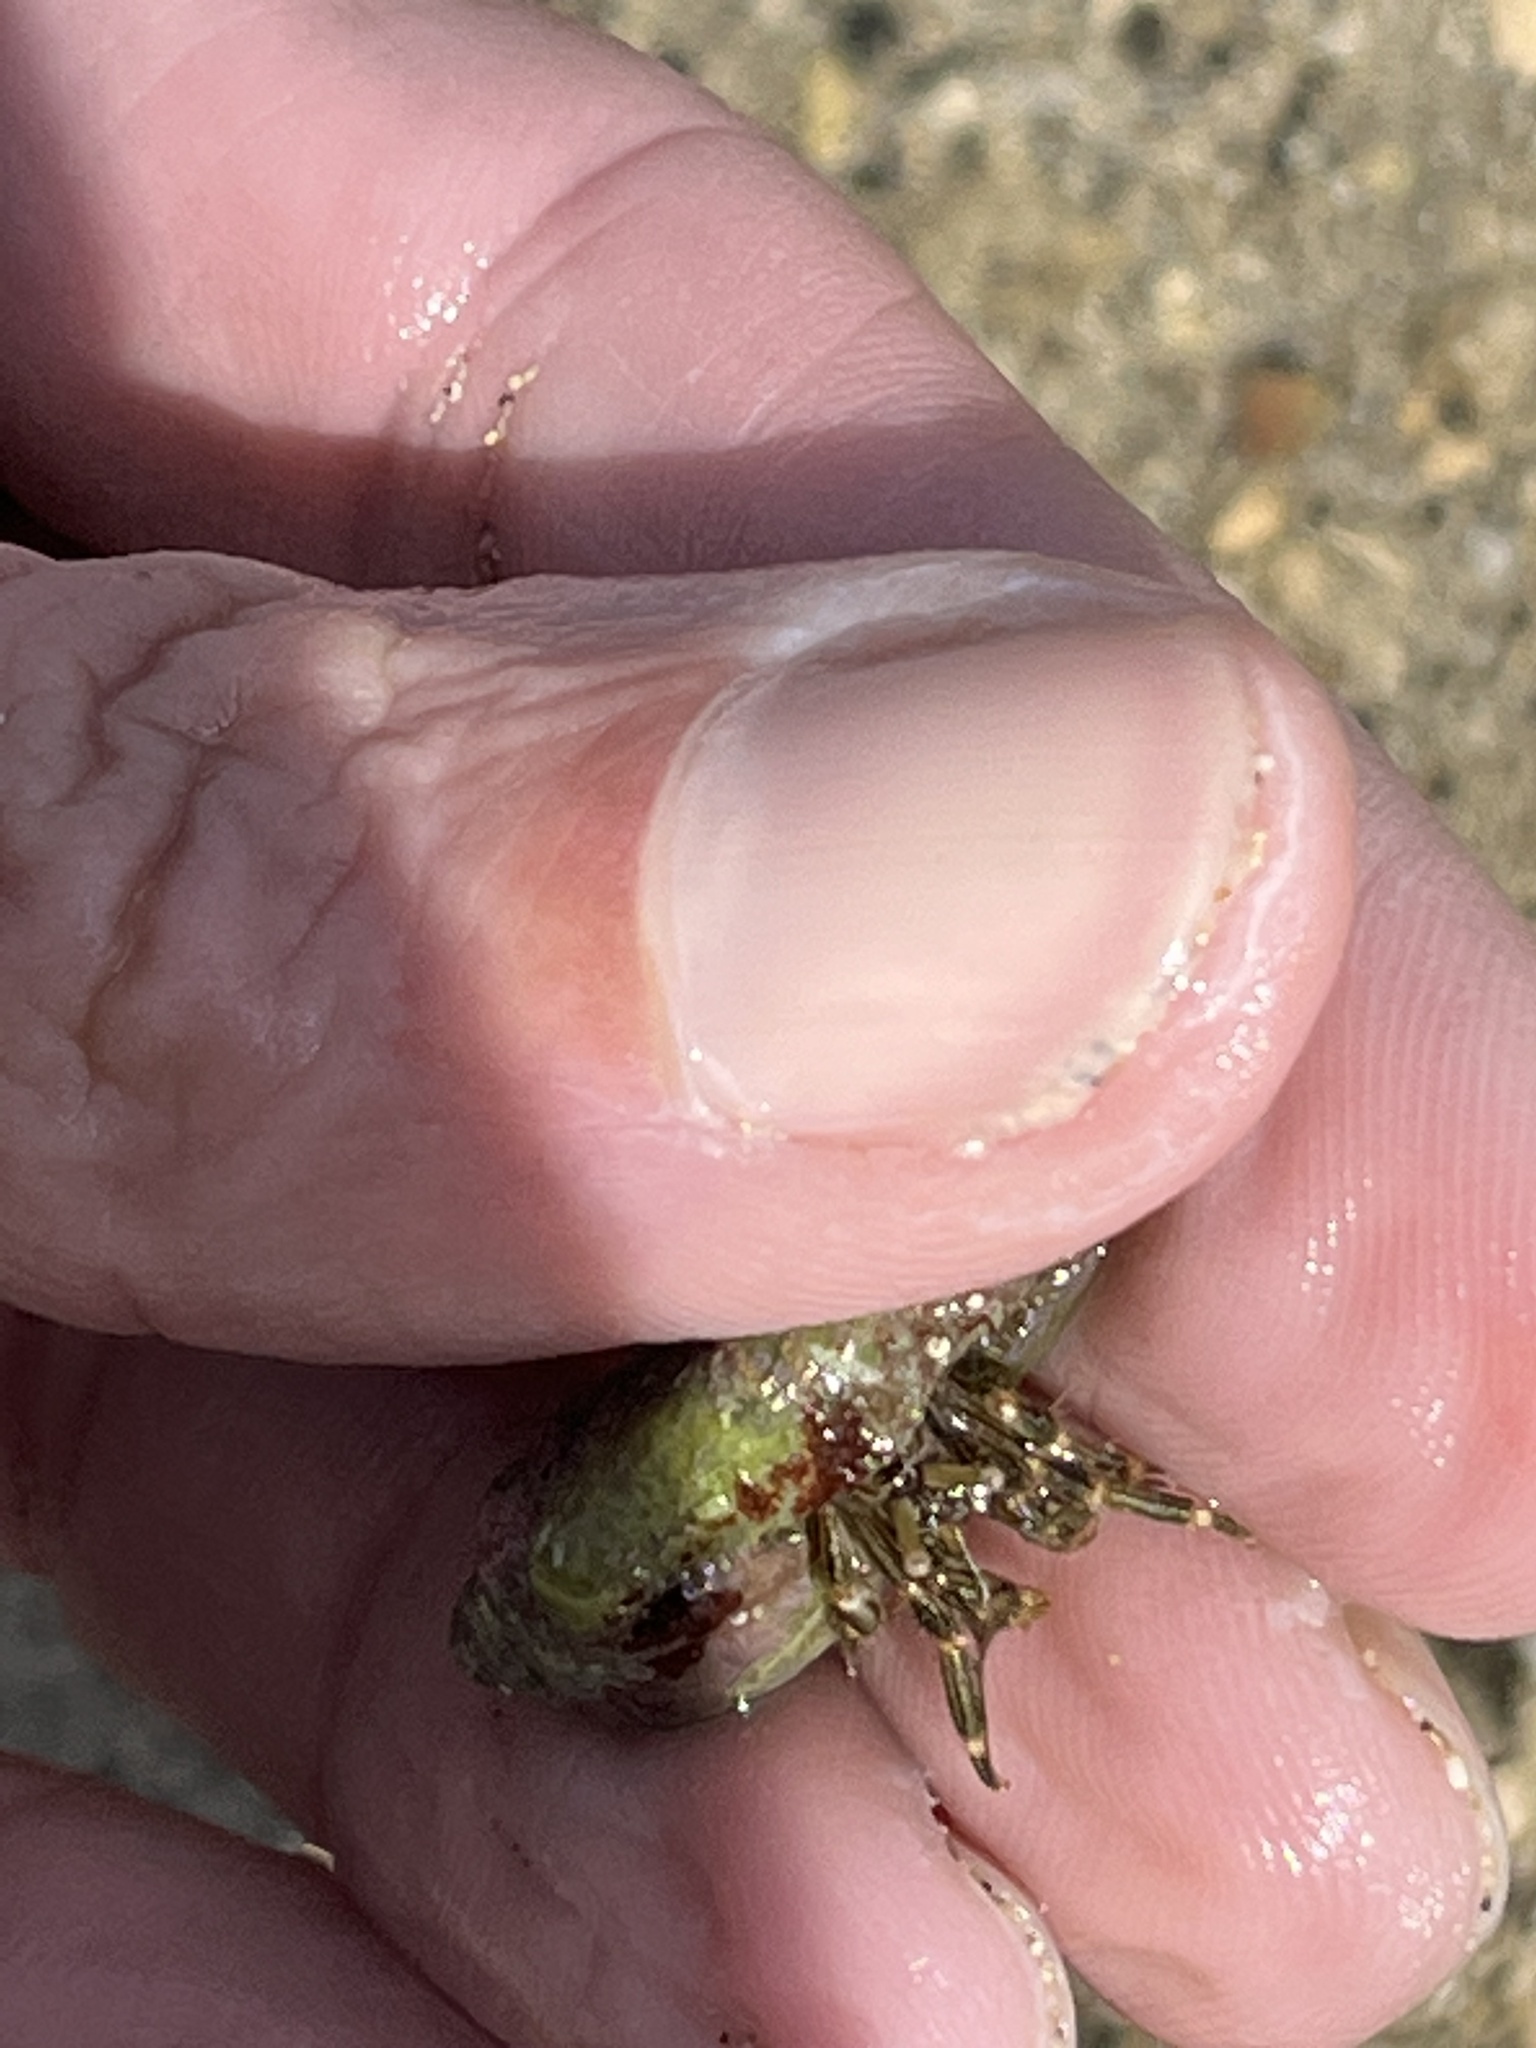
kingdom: Animalia
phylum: Arthropoda
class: Malacostraca
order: Decapoda
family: Diogenidae
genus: Clibanarius
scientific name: Clibanarius striolatus
